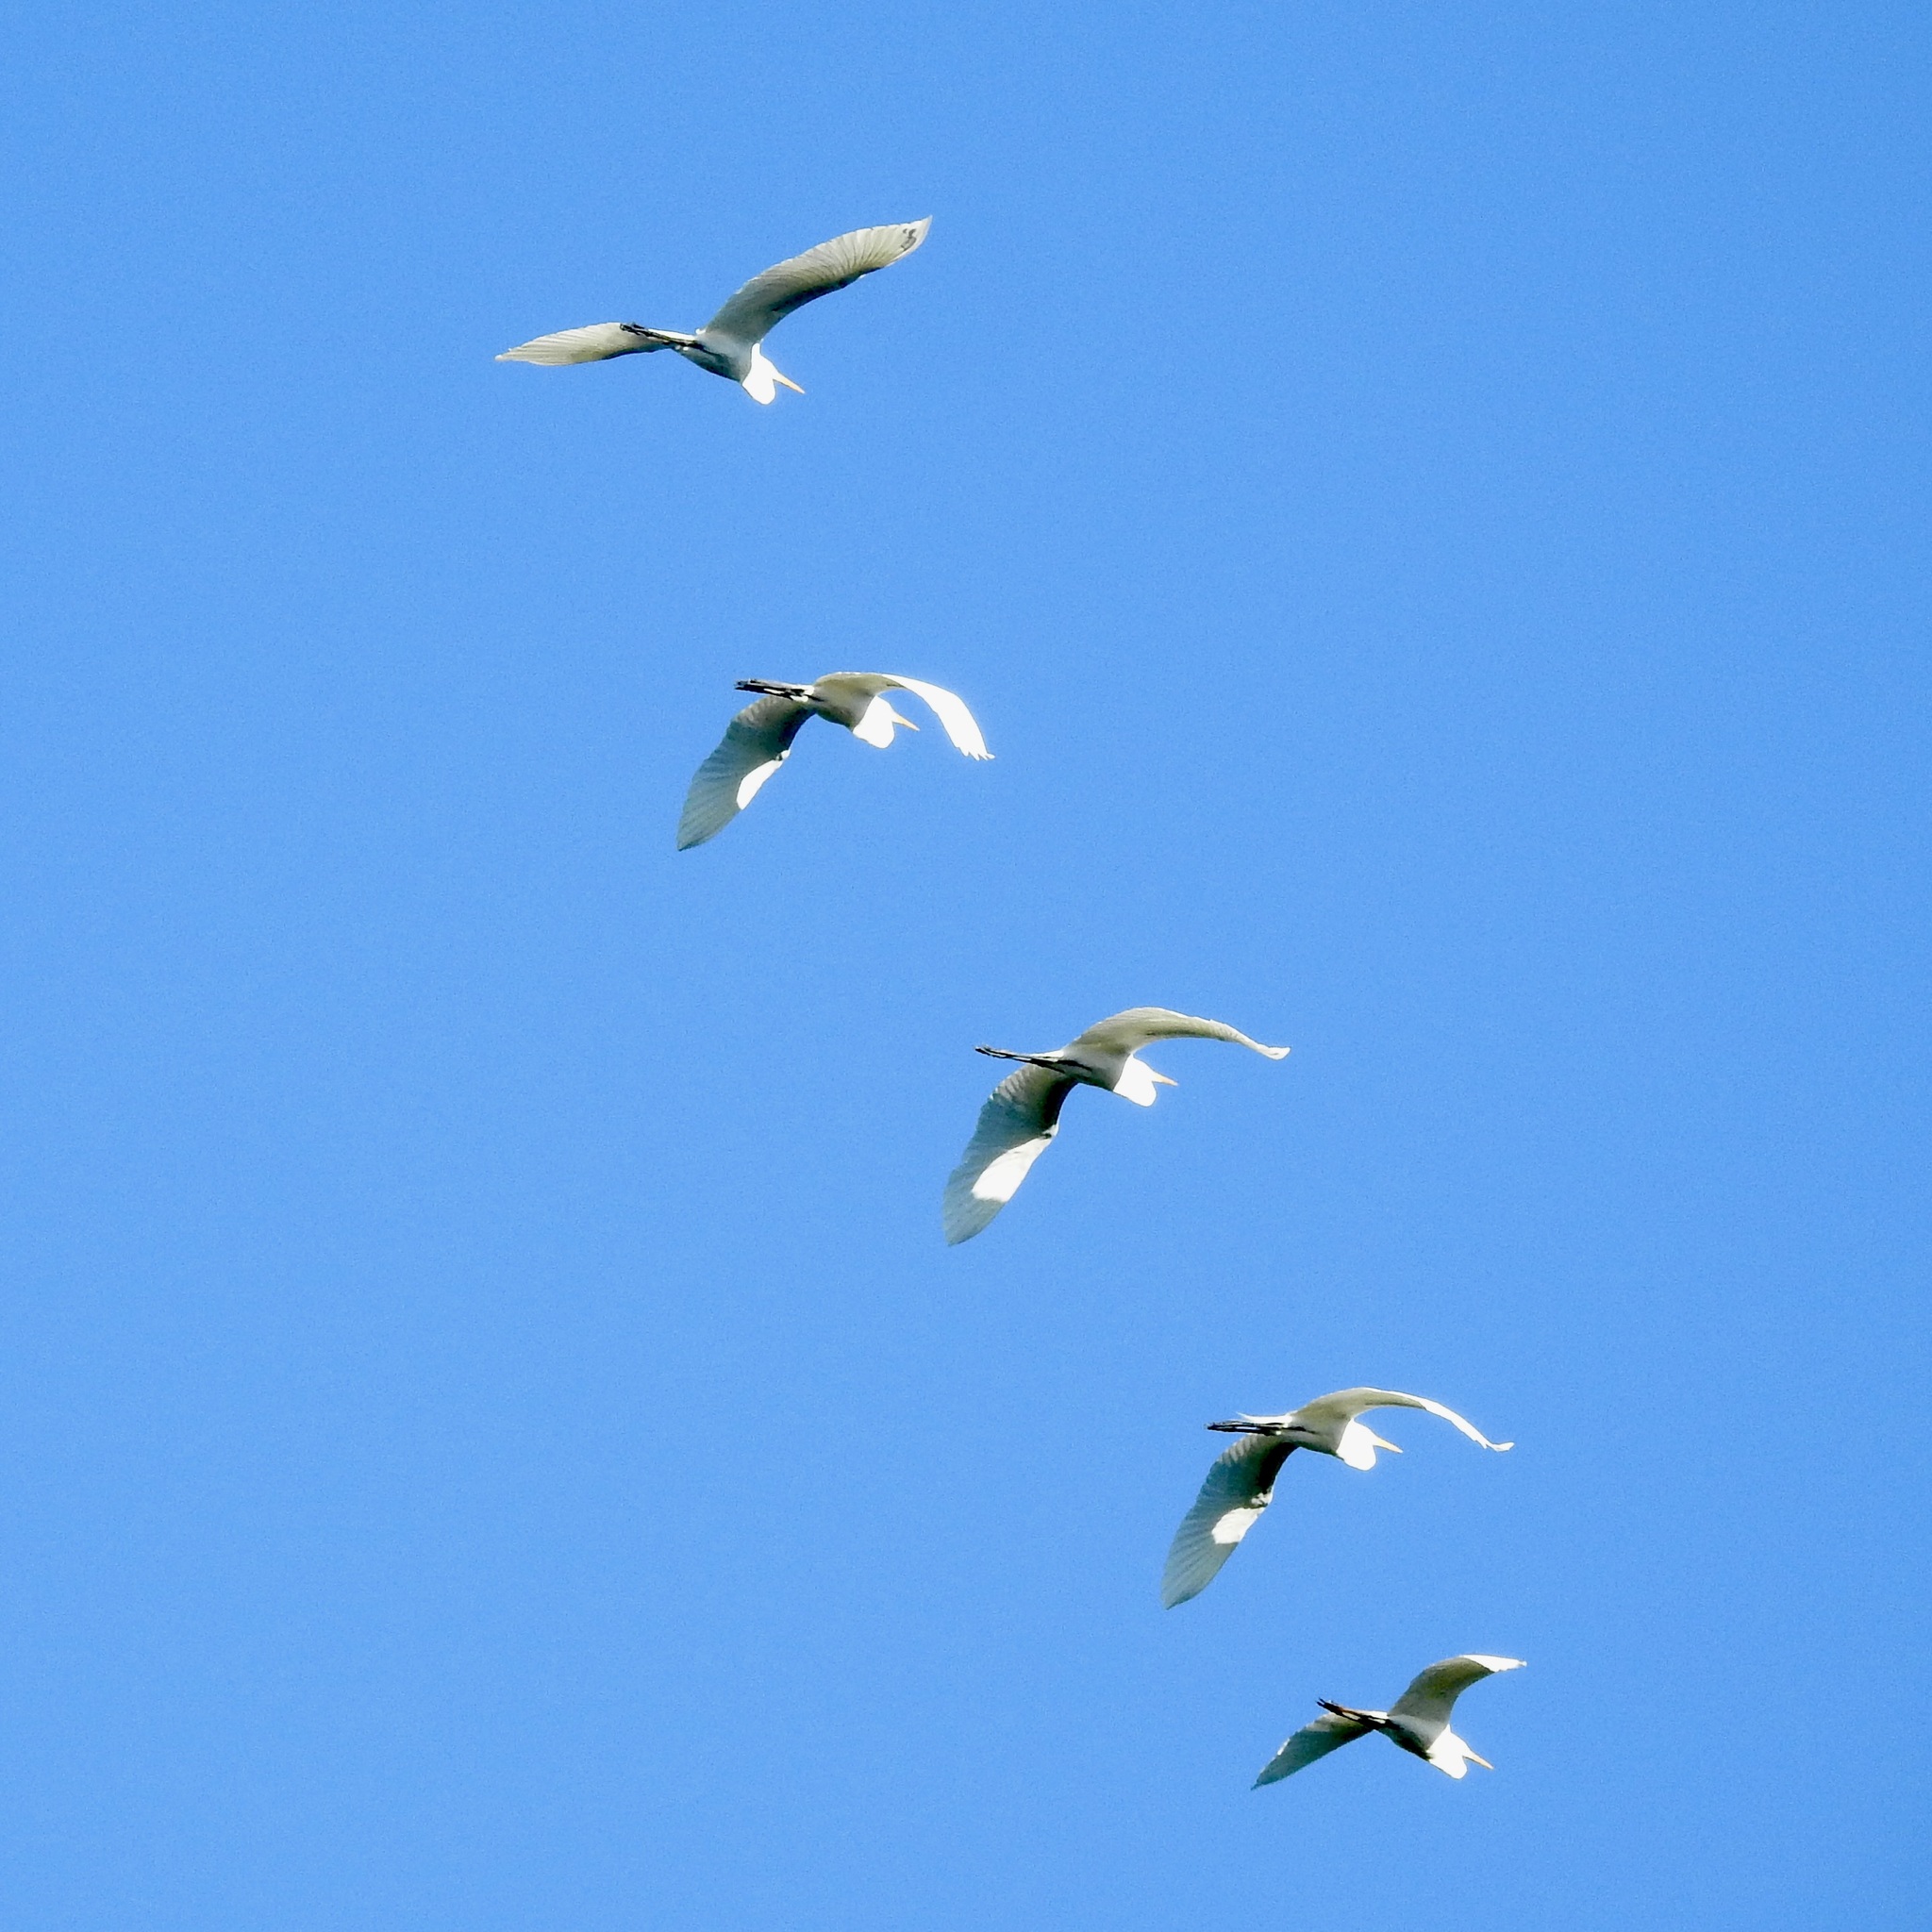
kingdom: Animalia
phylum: Chordata
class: Aves
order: Pelecaniformes
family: Ardeidae
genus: Ardea
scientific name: Ardea alba
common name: Great egret
